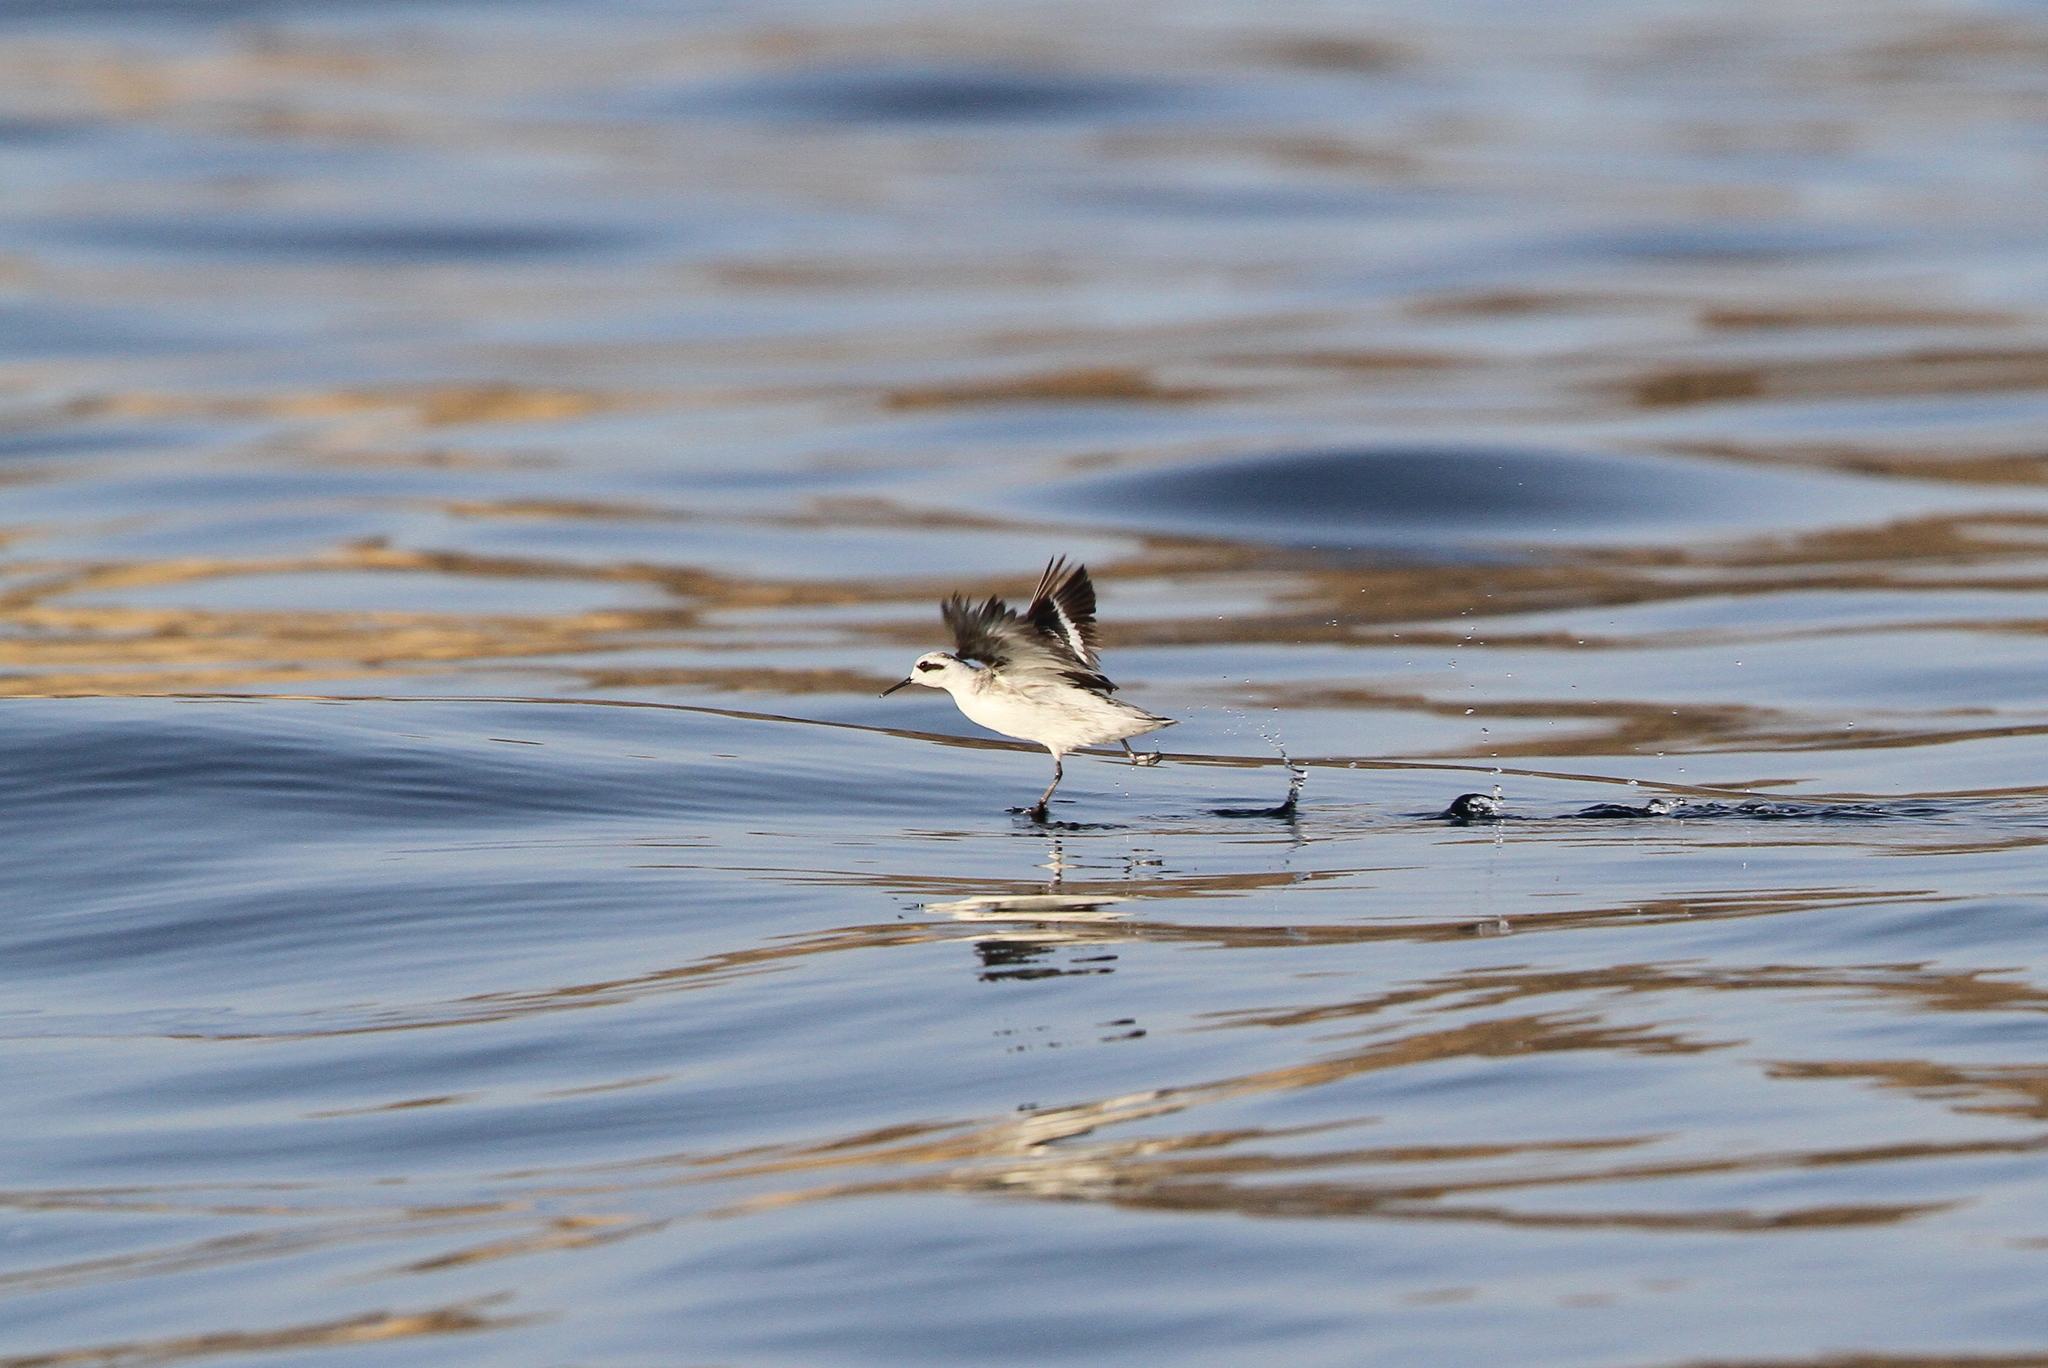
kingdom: Animalia
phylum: Chordata
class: Aves
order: Charadriiformes
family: Scolopacidae
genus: Phalaropus
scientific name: Phalaropus lobatus
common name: Red-necked phalarope
